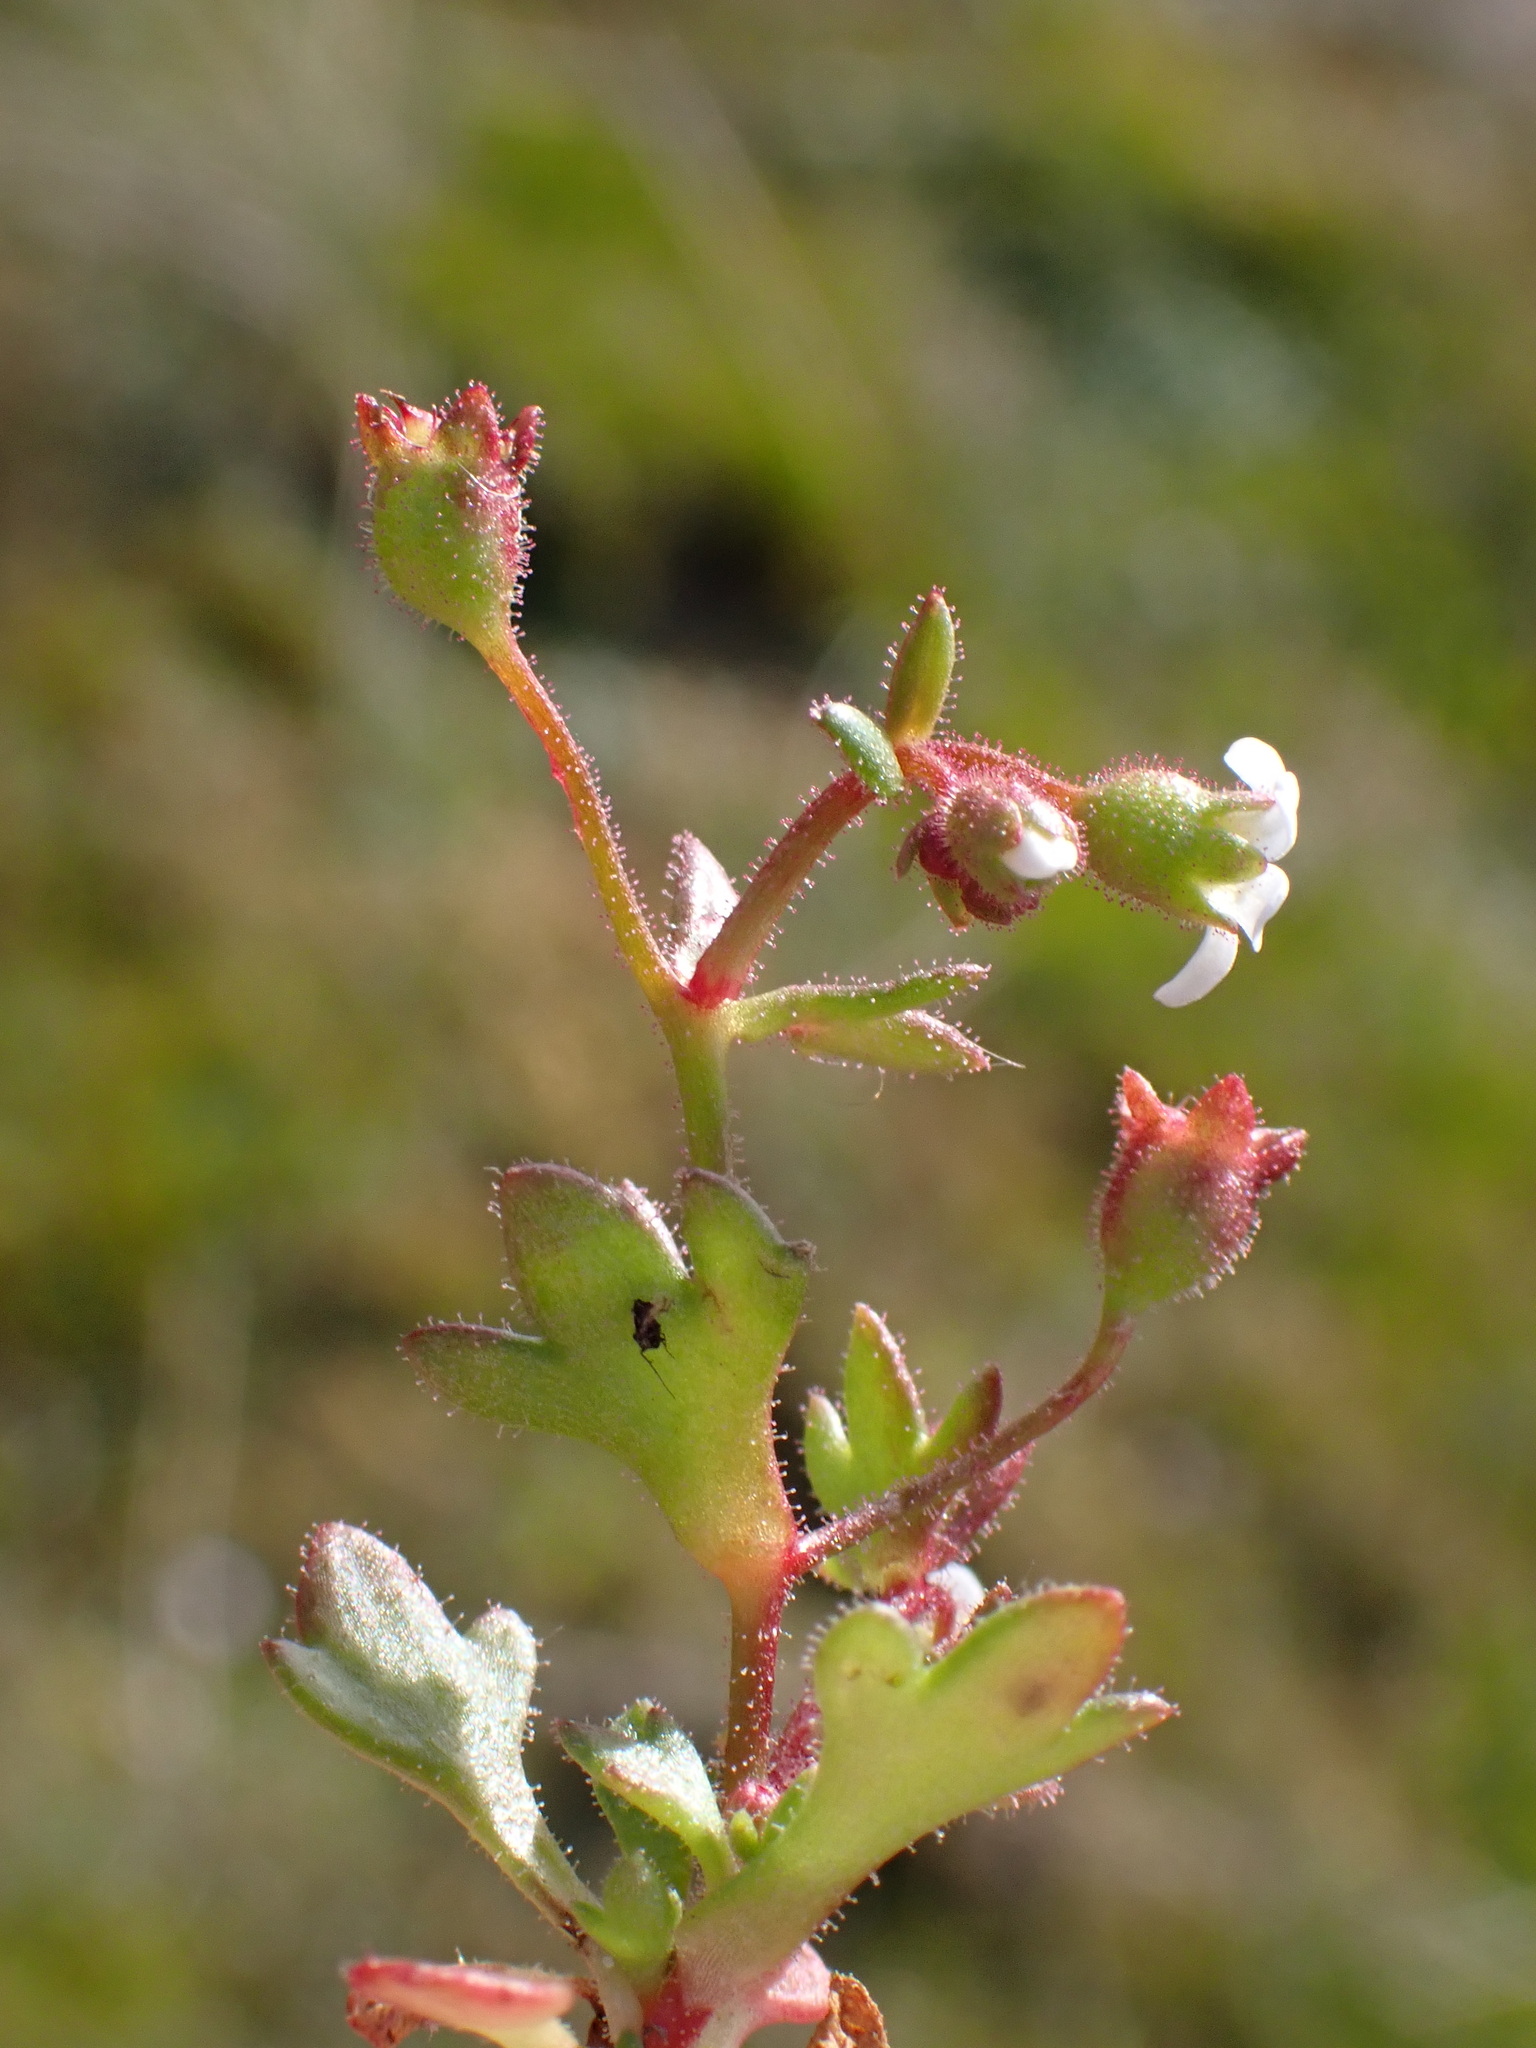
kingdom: Plantae
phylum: Tracheophyta
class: Magnoliopsida
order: Saxifragales
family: Saxifragaceae
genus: Saxifraga
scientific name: Saxifraga tridactylites
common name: Rue-leaved saxifrage
